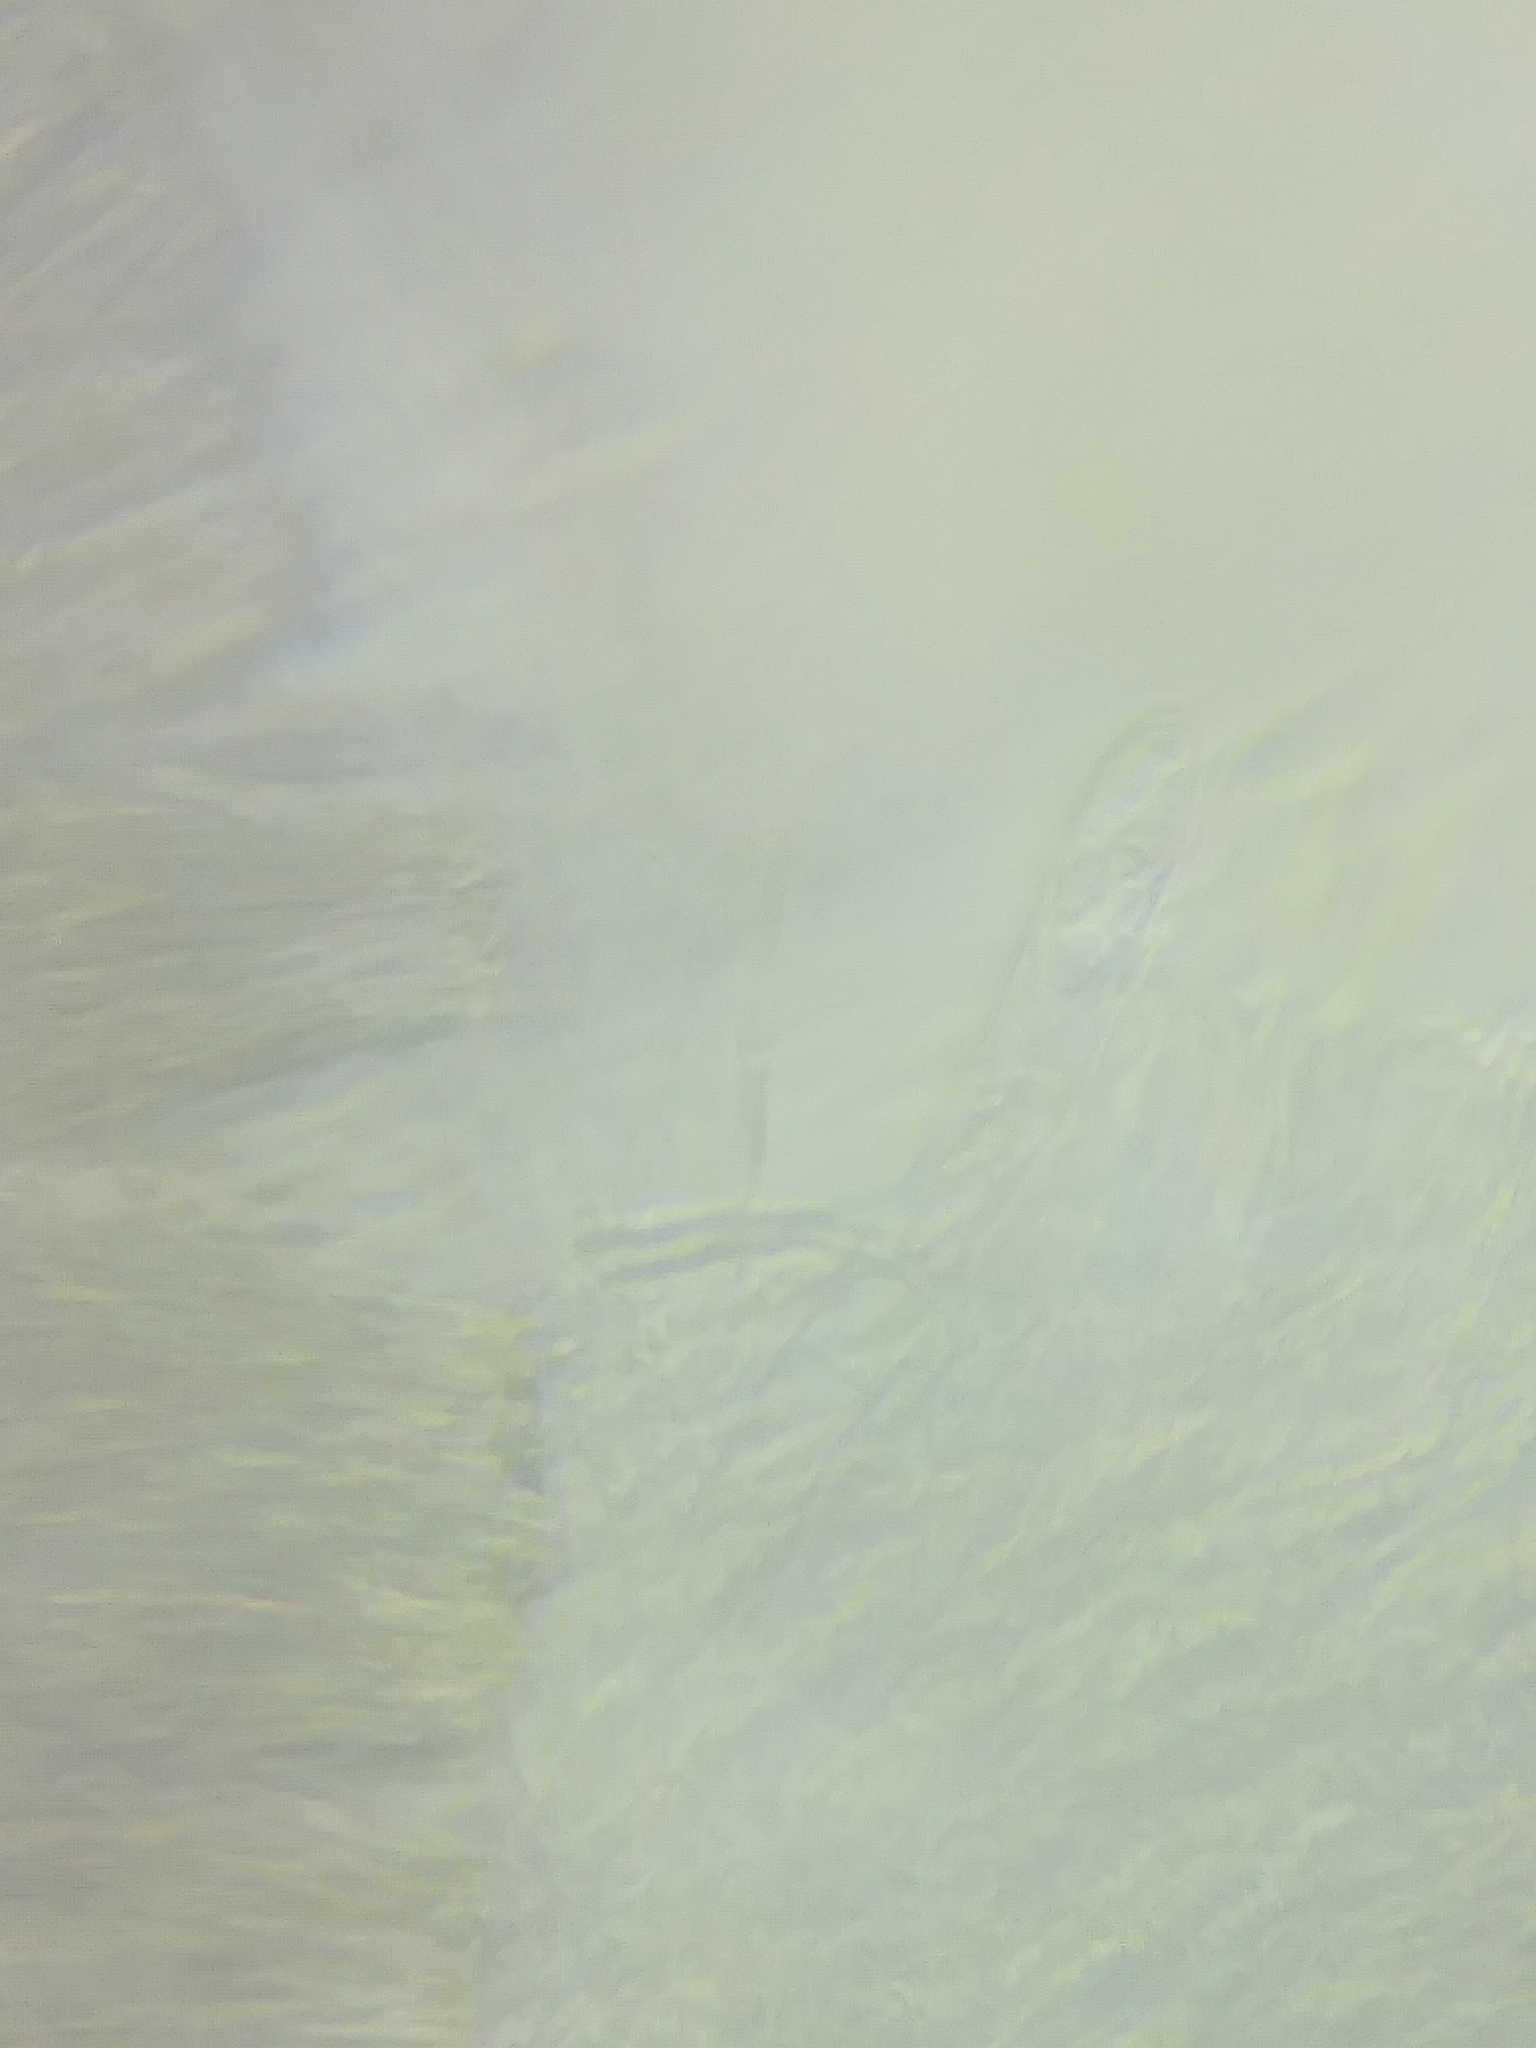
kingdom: Fungi
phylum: Ascomycota
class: Leotiomycetes
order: Helotiales
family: Pezizellaceae
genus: Calycina
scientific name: Calycina lactea
